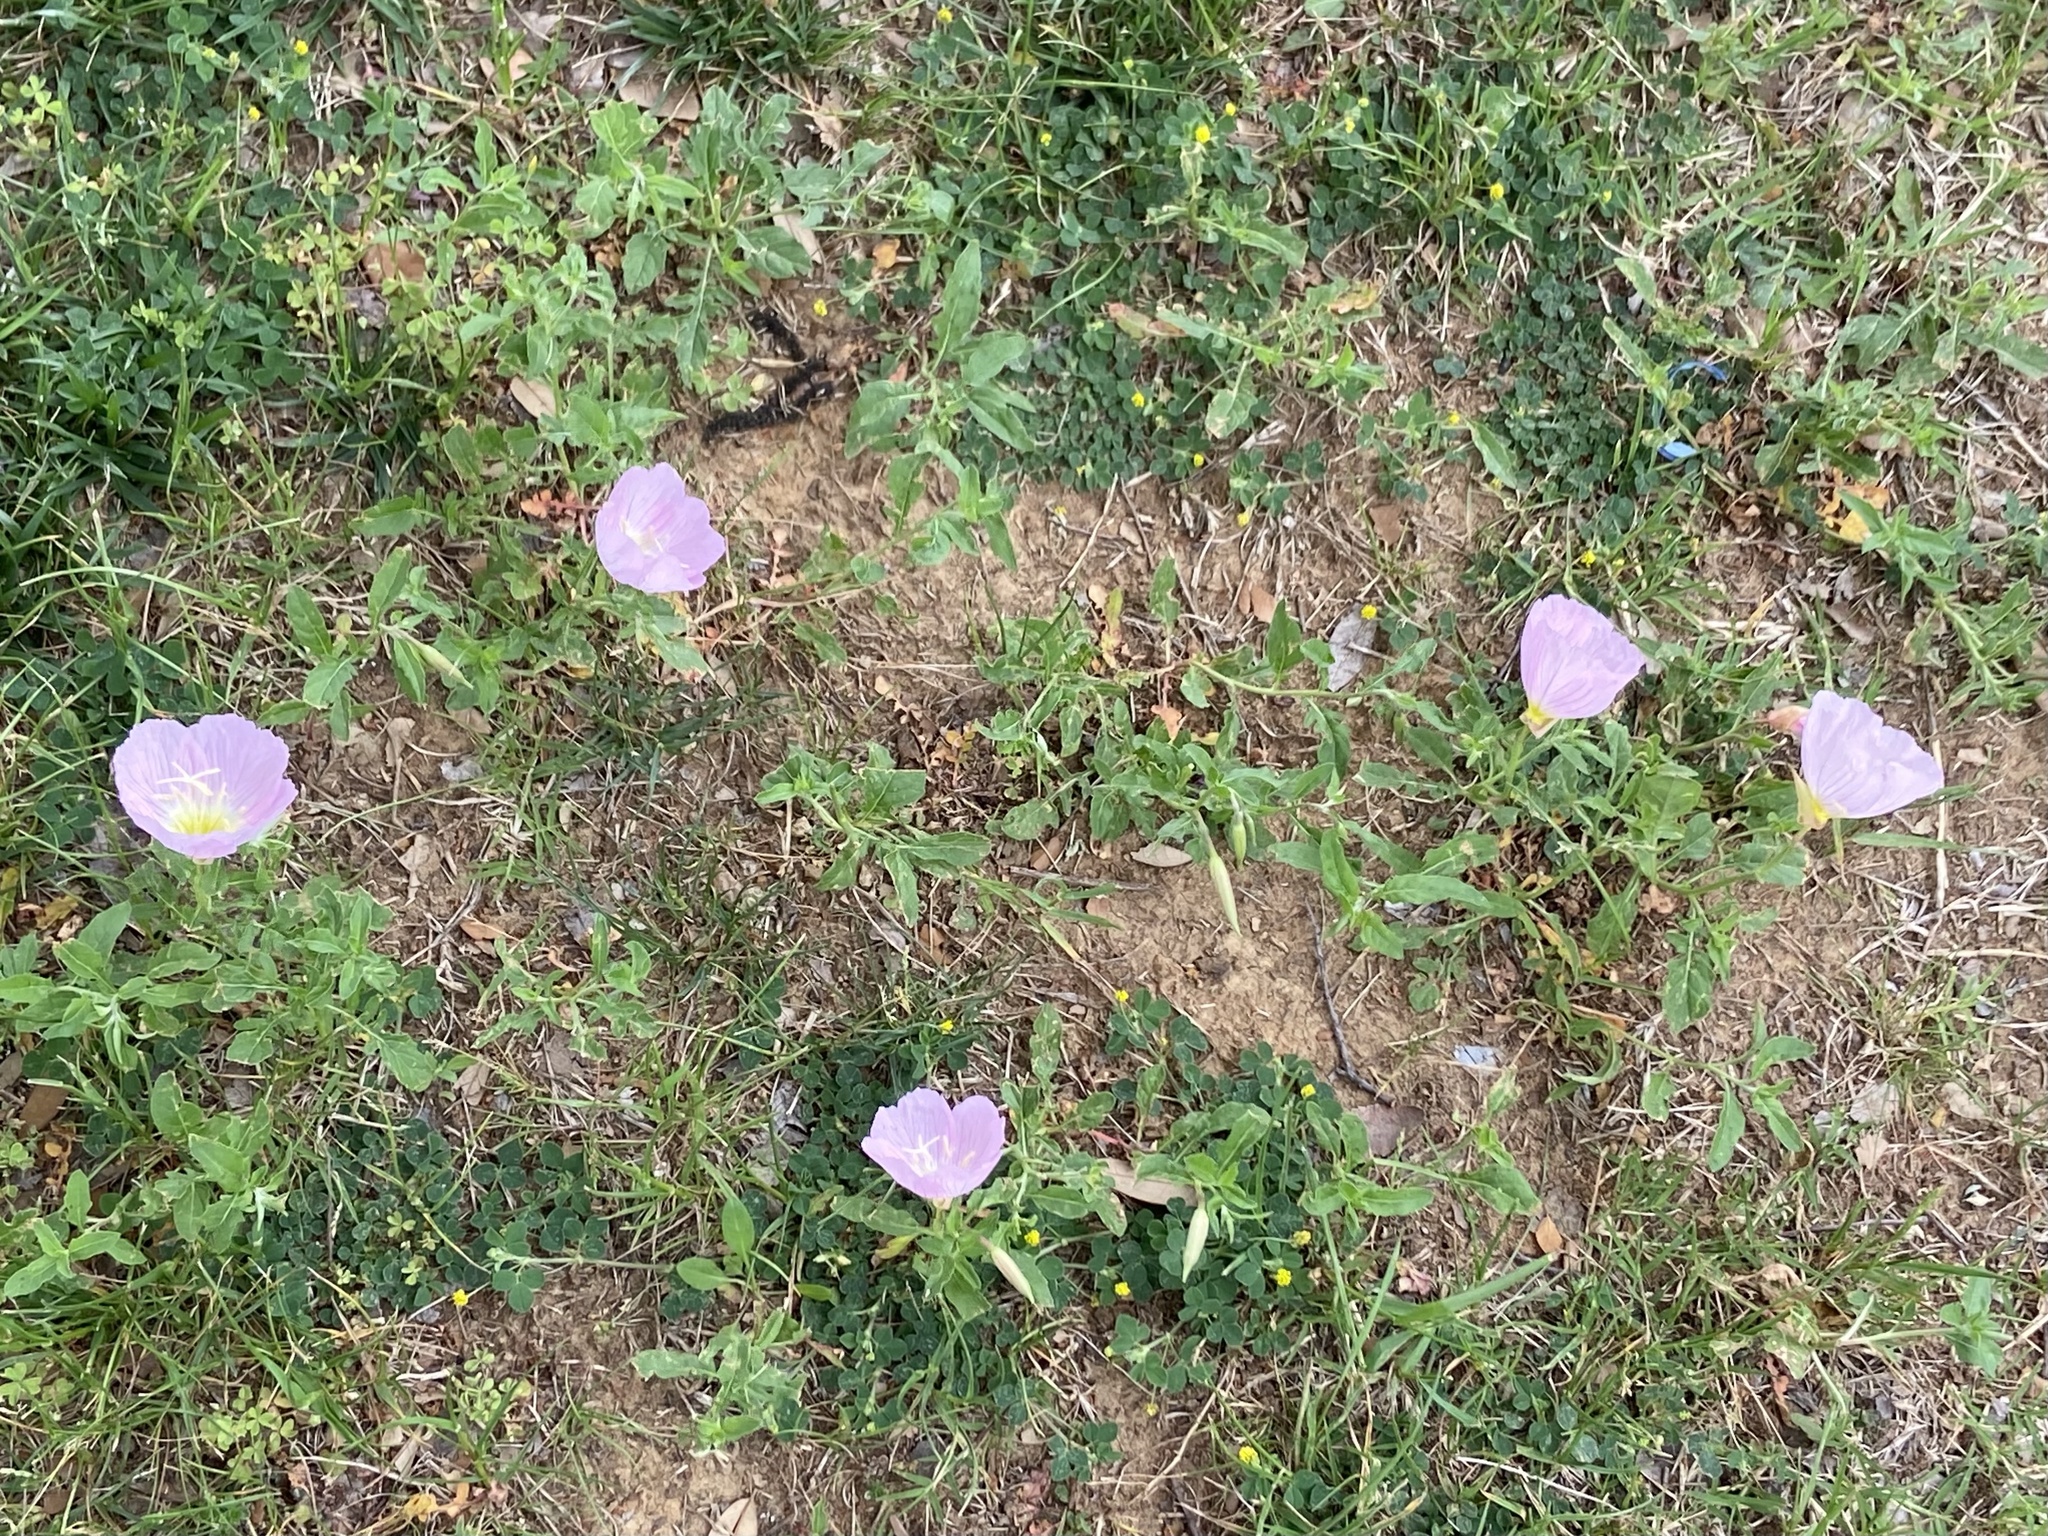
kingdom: Plantae
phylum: Tracheophyta
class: Magnoliopsida
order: Myrtales
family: Onagraceae
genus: Oenothera
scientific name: Oenothera speciosa
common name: White evening-primrose
